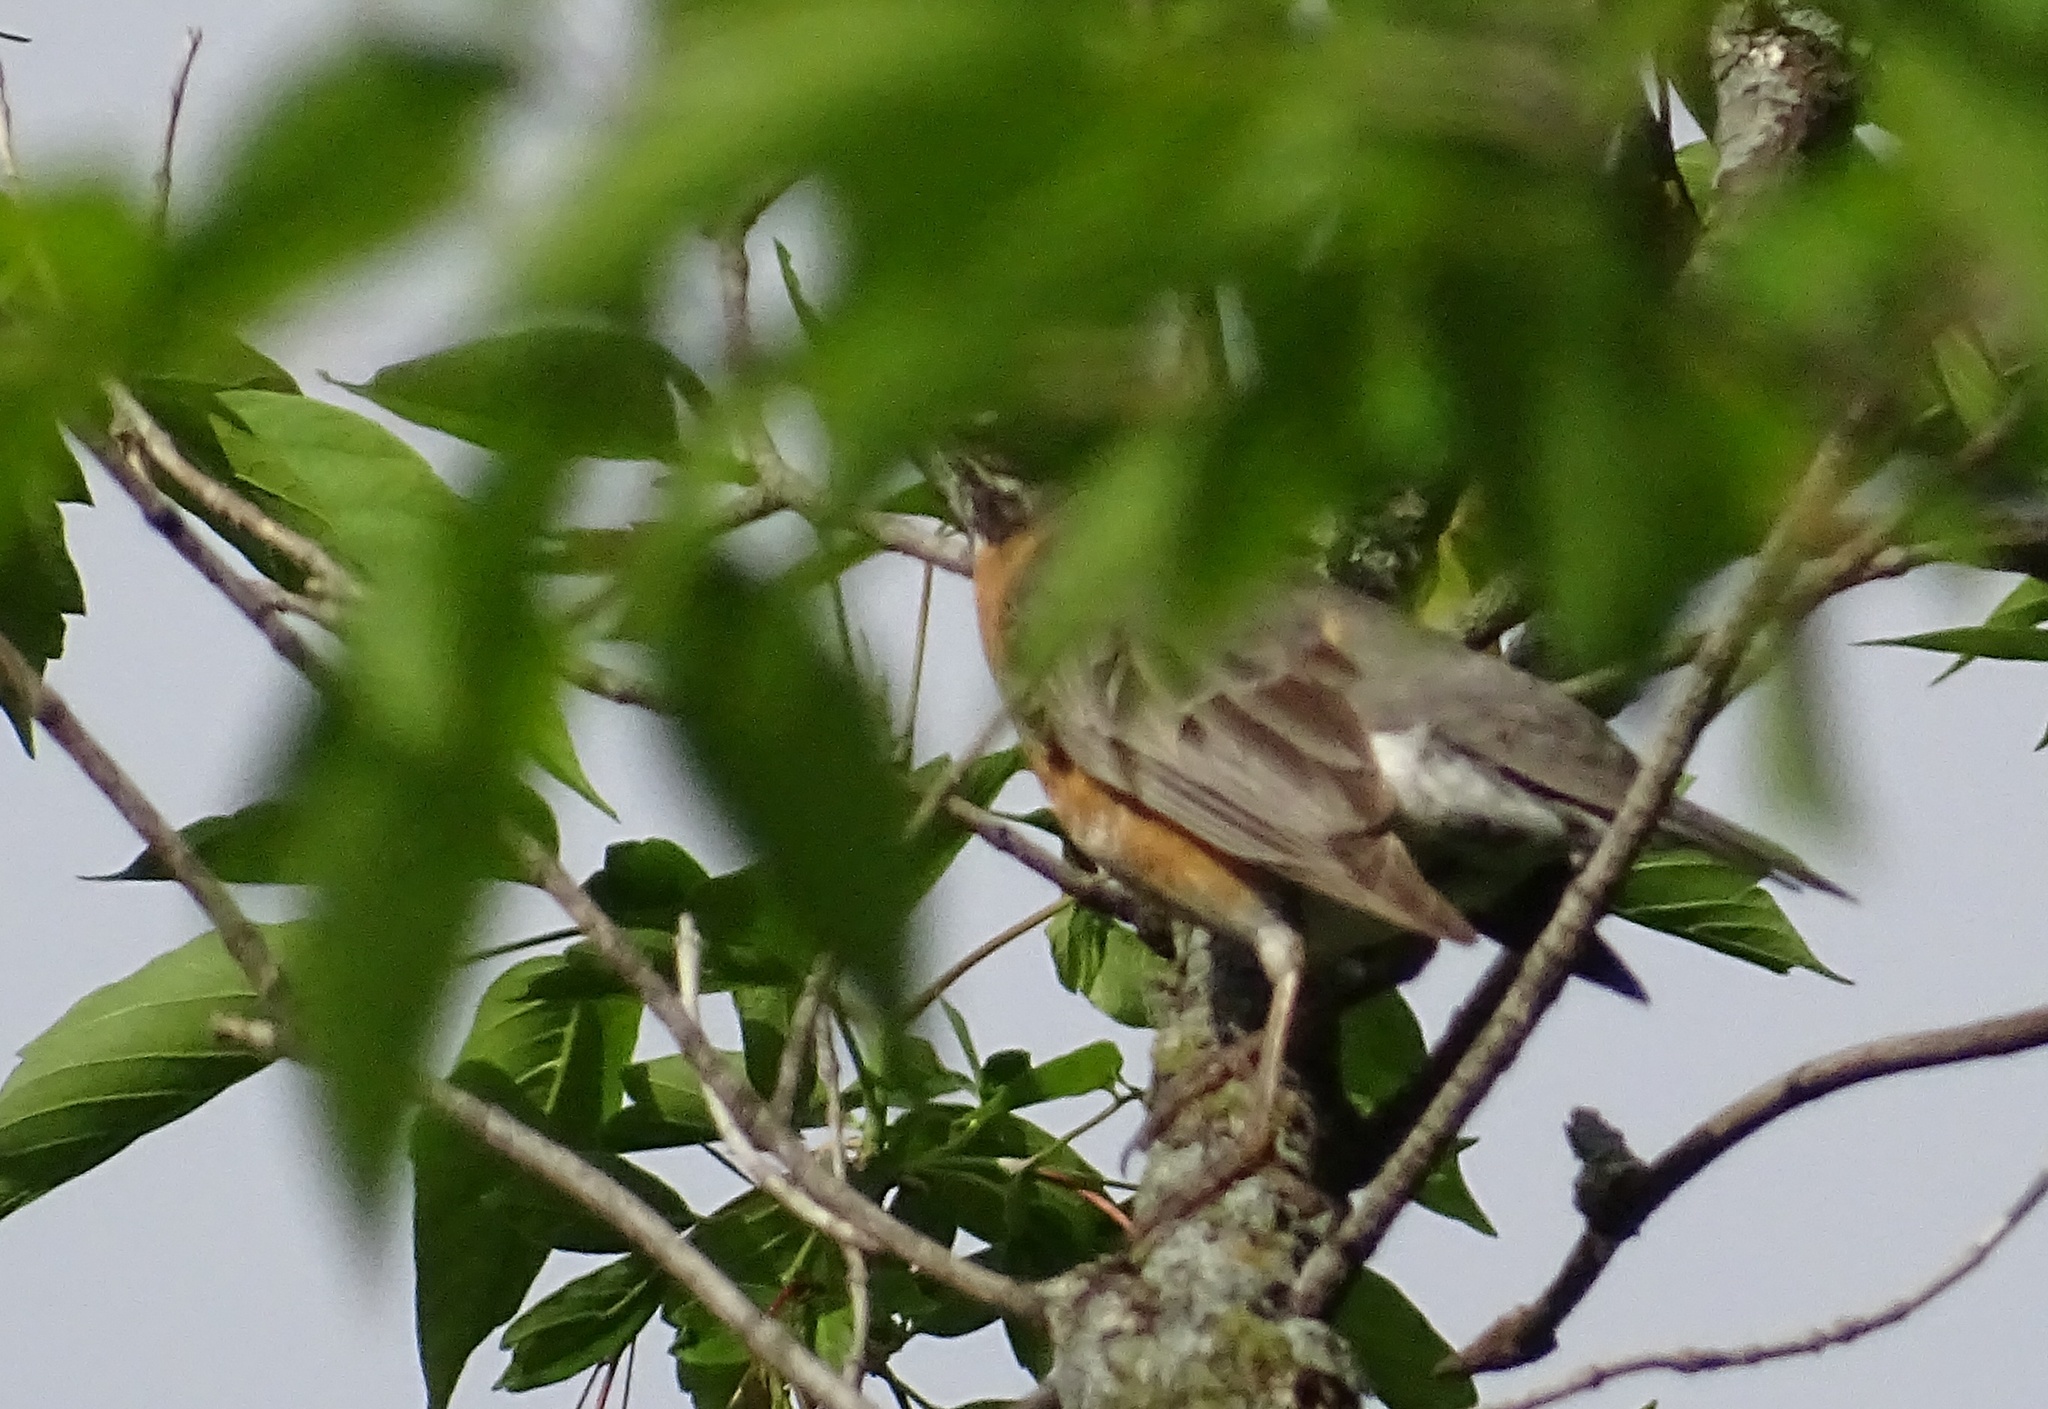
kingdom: Animalia
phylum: Chordata
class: Aves
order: Passeriformes
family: Turdidae
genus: Turdus
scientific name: Turdus migratorius
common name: American robin
